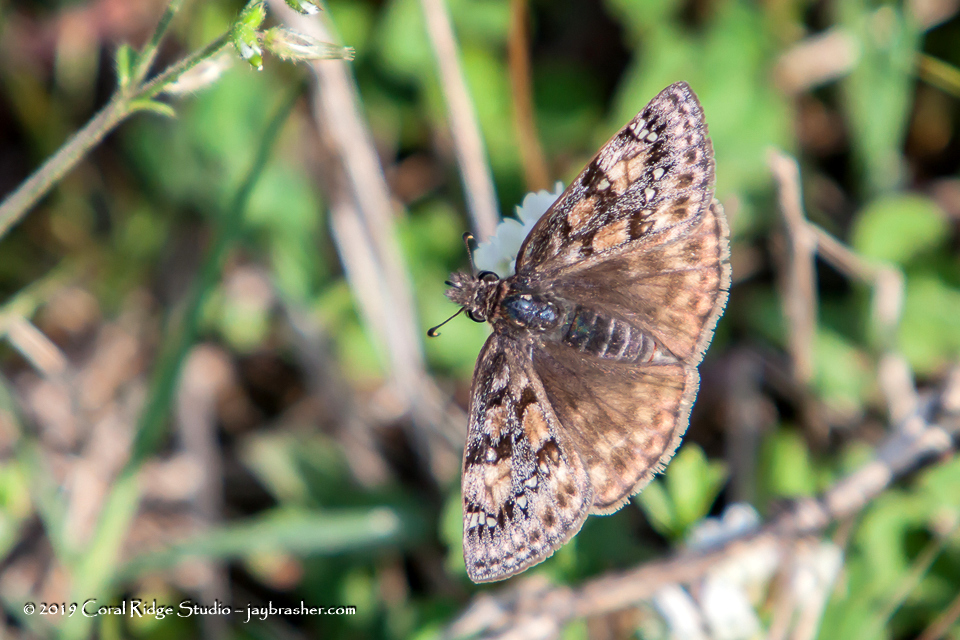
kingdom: Animalia
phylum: Arthropoda
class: Insecta
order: Lepidoptera
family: Hesperiidae
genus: Erynnis
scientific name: Erynnis juvenalis
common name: Juvenal's duskywing
